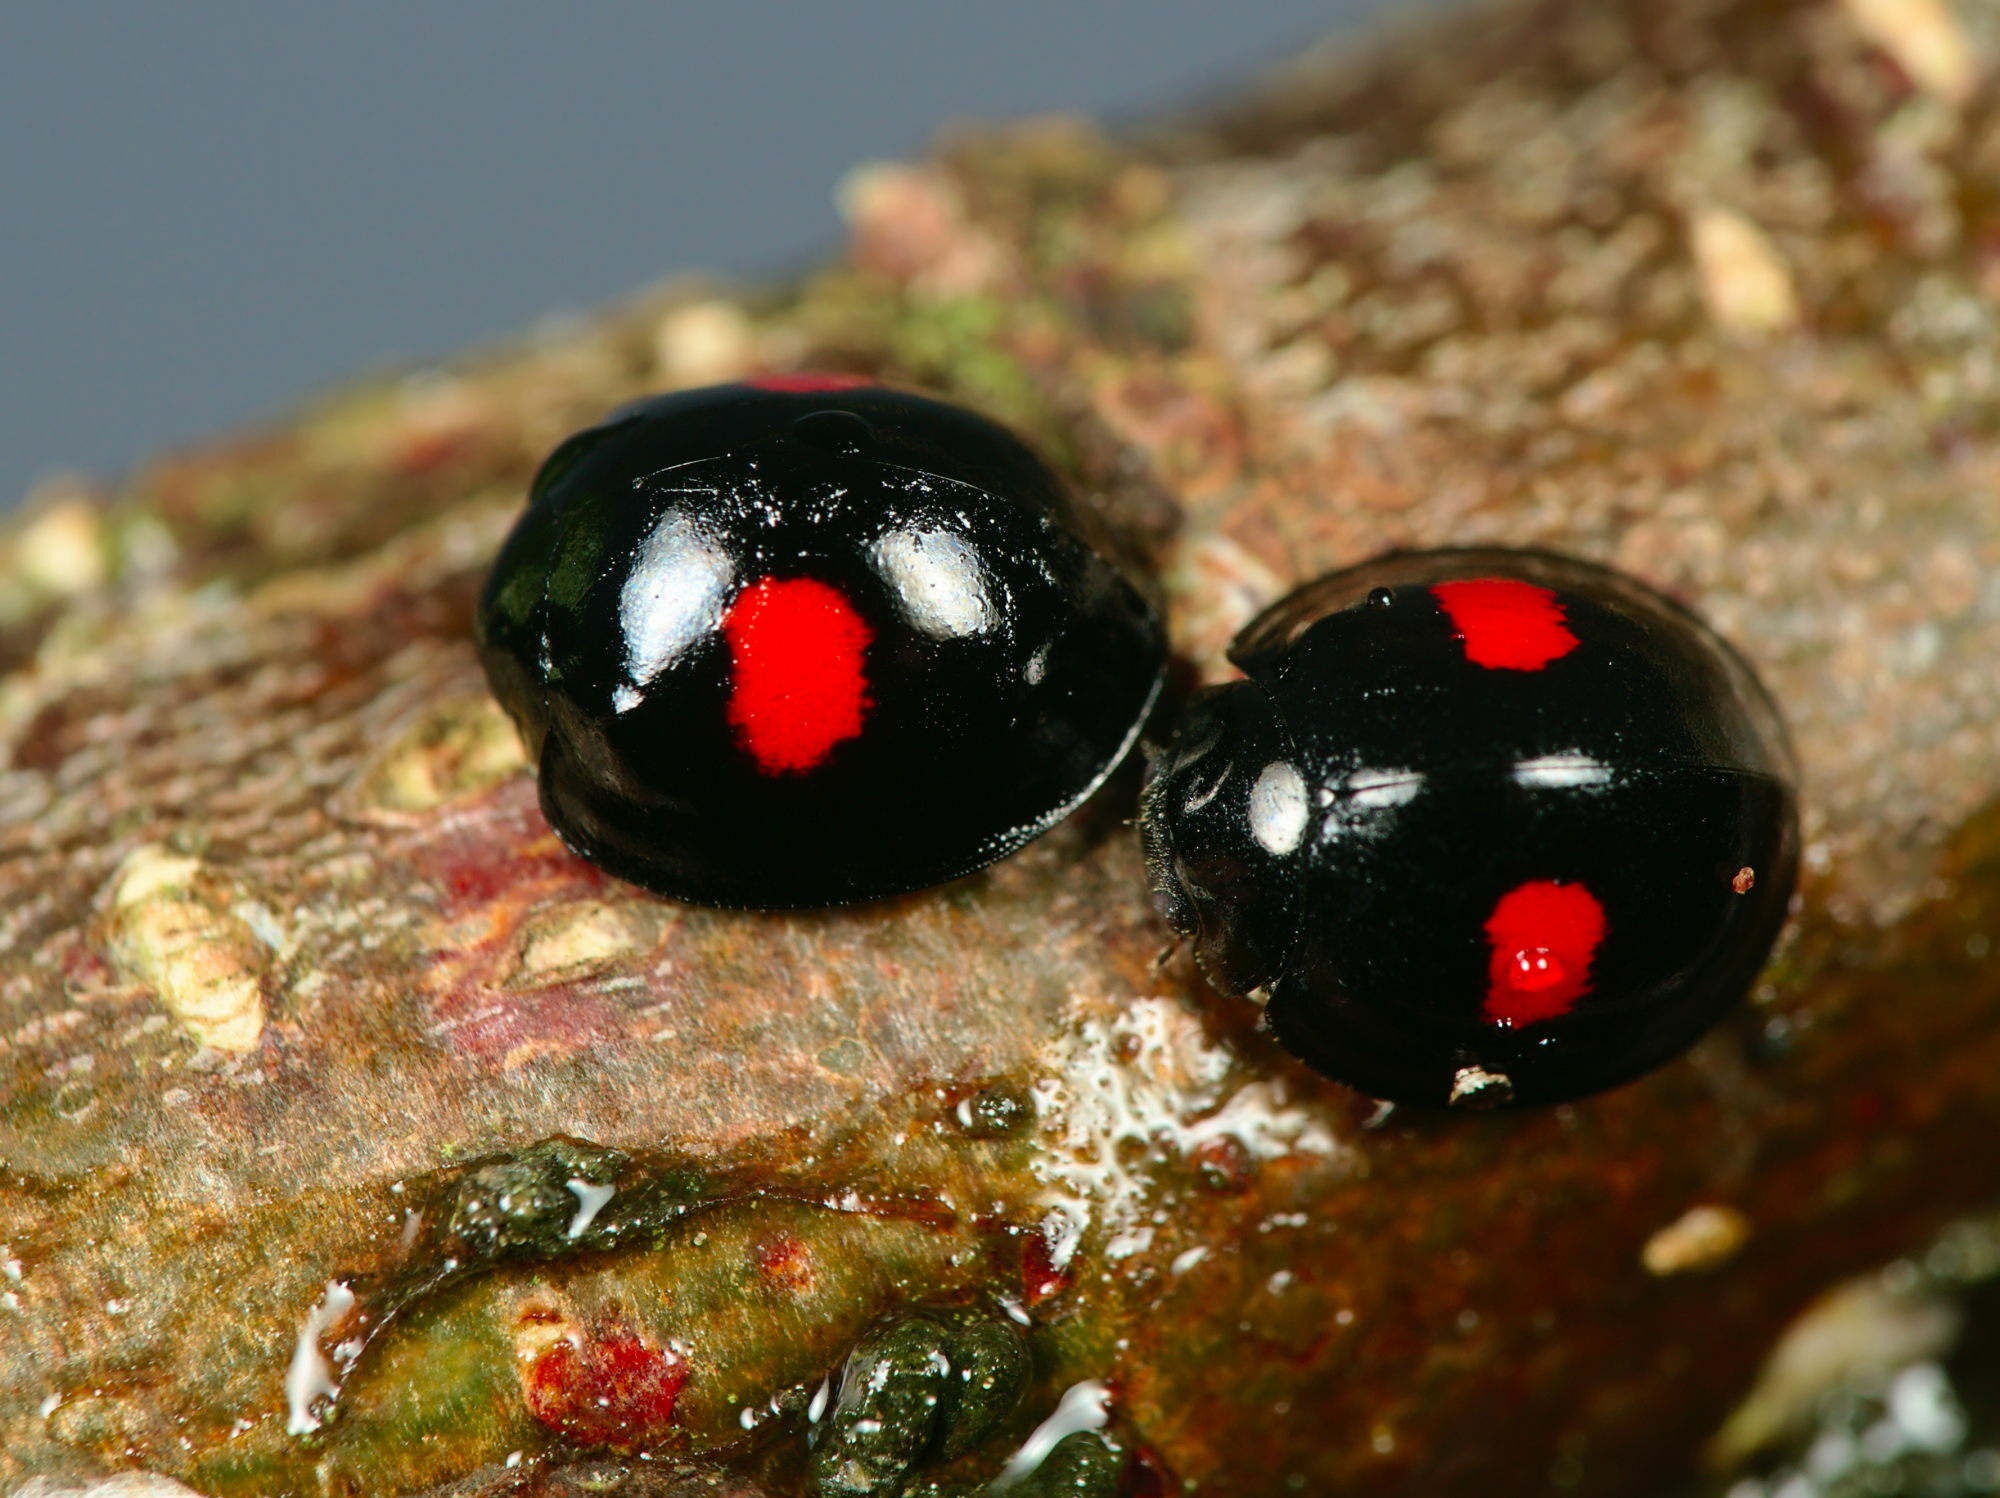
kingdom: Animalia
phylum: Arthropoda
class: Insecta
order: Coleoptera
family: Coccinellidae
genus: Chilocorus
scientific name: Chilocorus renipustulatus
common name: Kidney-spot ladybird
